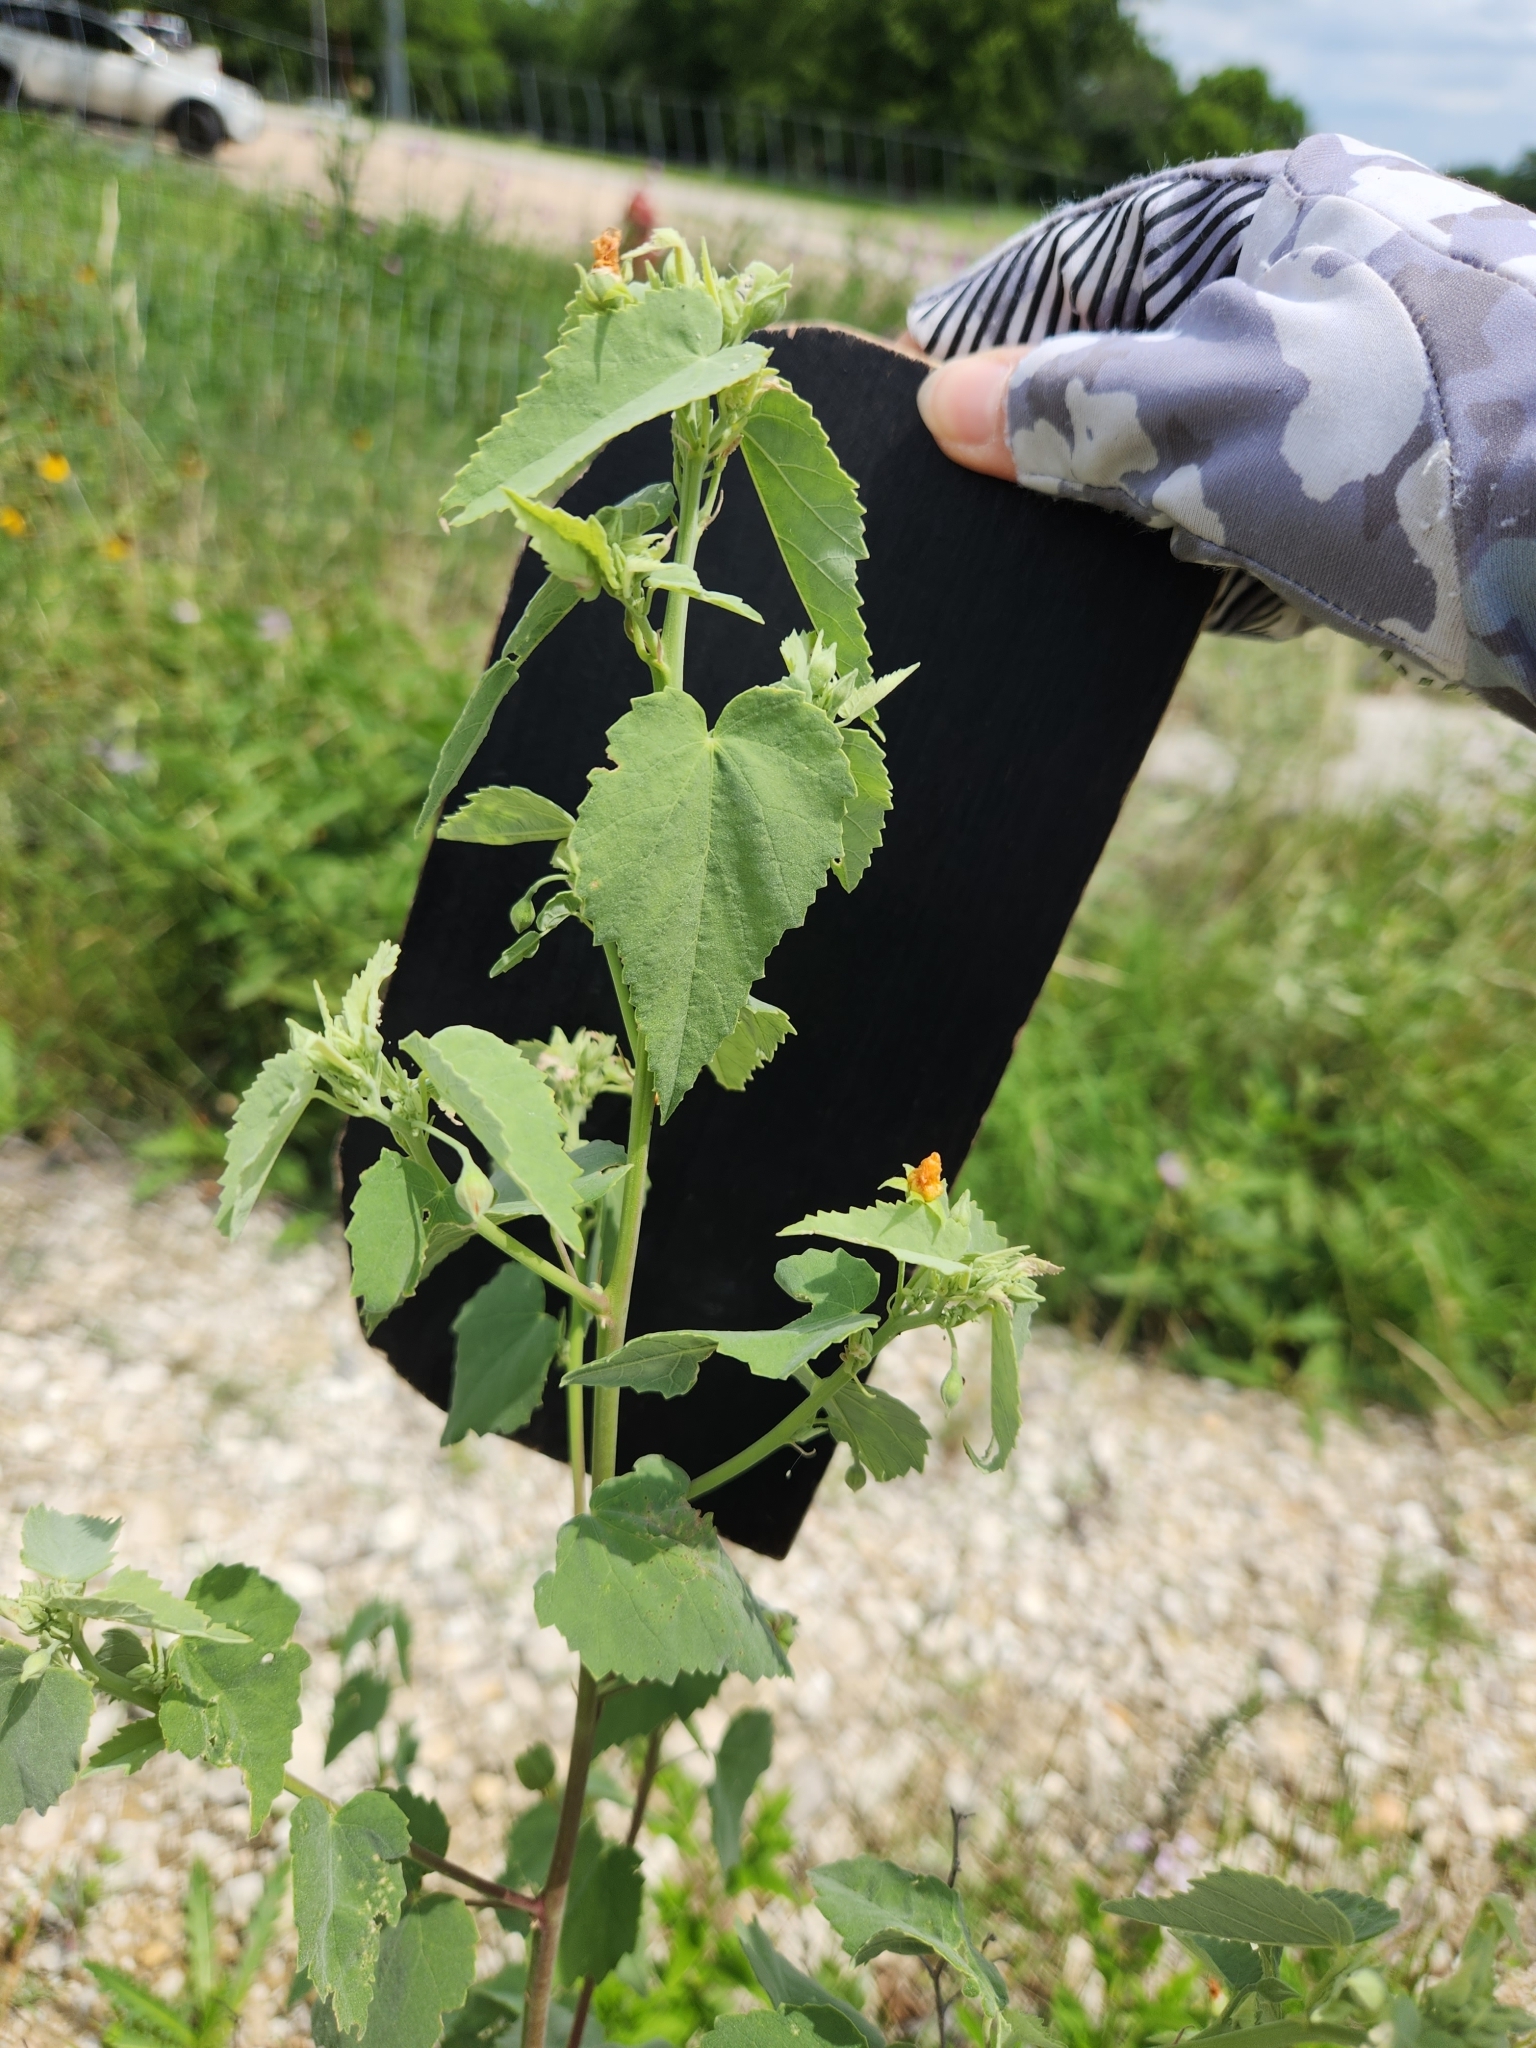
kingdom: Plantae
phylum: Tracheophyta
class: Magnoliopsida
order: Malvales
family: Malvaceae
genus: Abutilon
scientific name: Abutilon fruticosum
